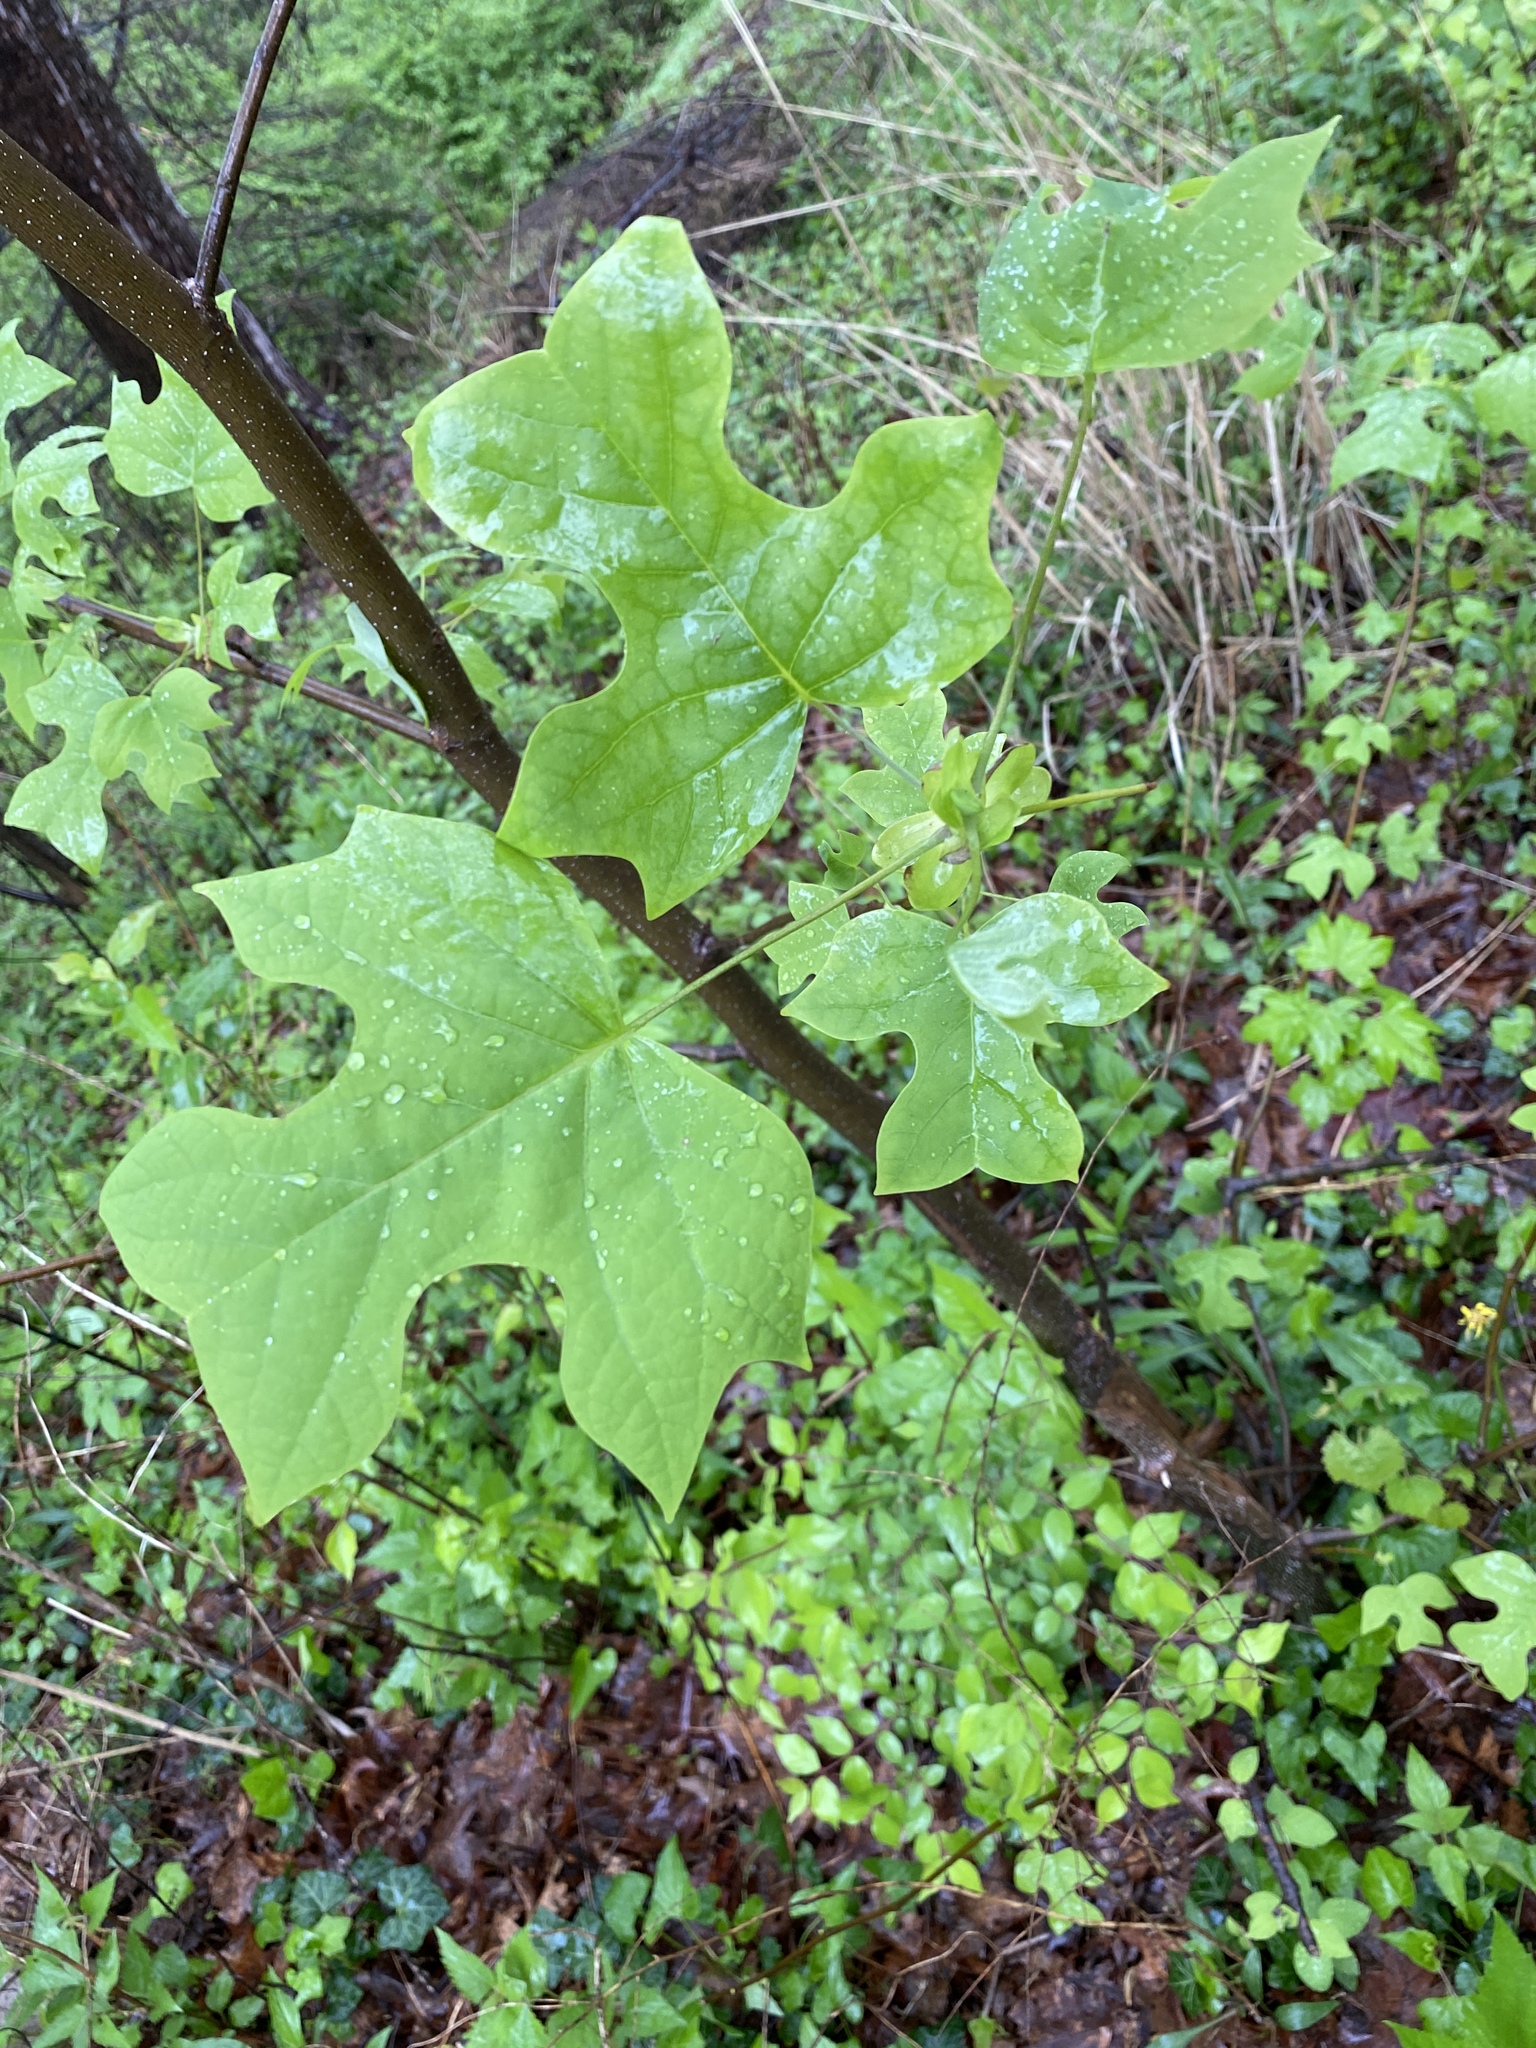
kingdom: Plantae
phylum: Tracheophyta
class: Magnoliopsida
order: Magnoliales
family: Magnoliaceae
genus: Liriodendron
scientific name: Liriodendron tulipifera
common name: Tulip tree
